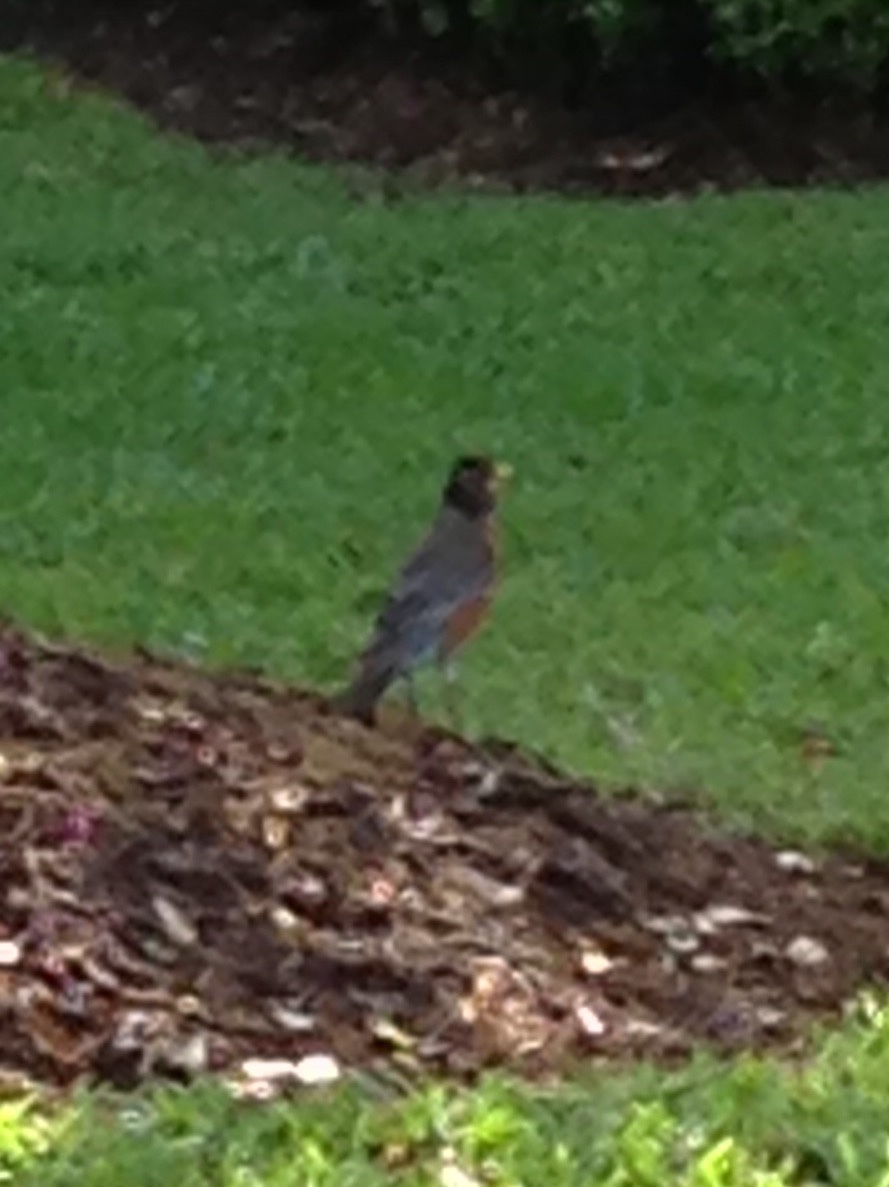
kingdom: Animalia
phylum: Chordata
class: Aves
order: Passeriformes
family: Turdidae
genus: Turdus
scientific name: Turdus migratorius
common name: American robin
